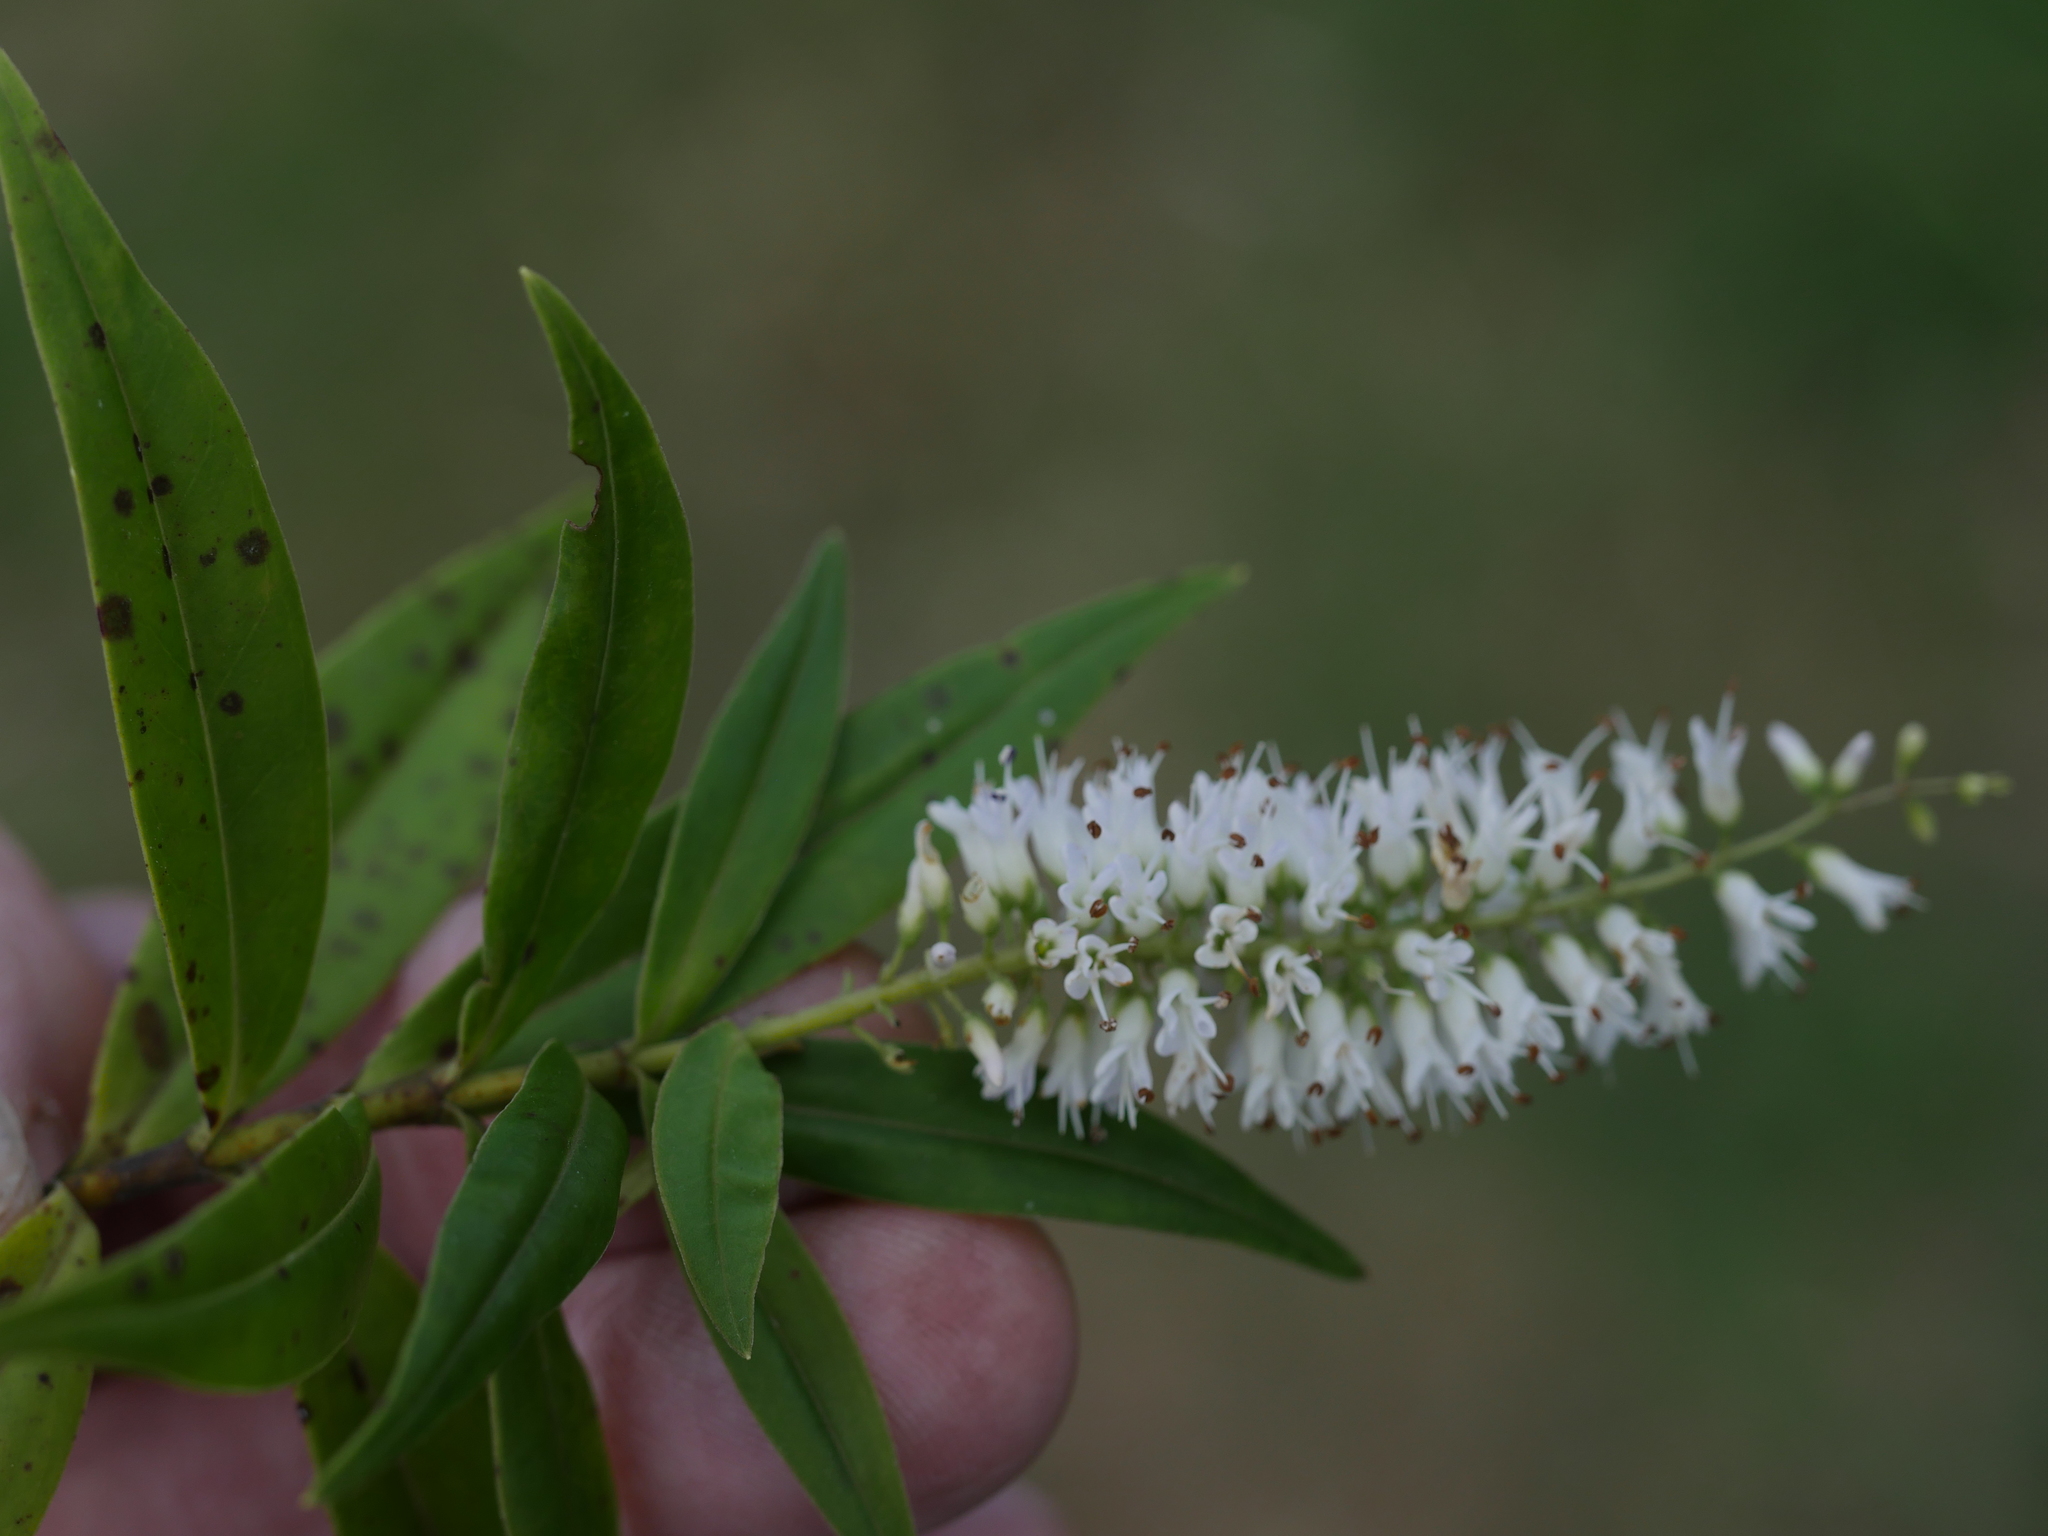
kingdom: Plantae
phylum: Tracheophyta
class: Magnoliopsida
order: Lamiales
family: Plantaginaceae
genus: Veronica
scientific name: Veronica stricta
